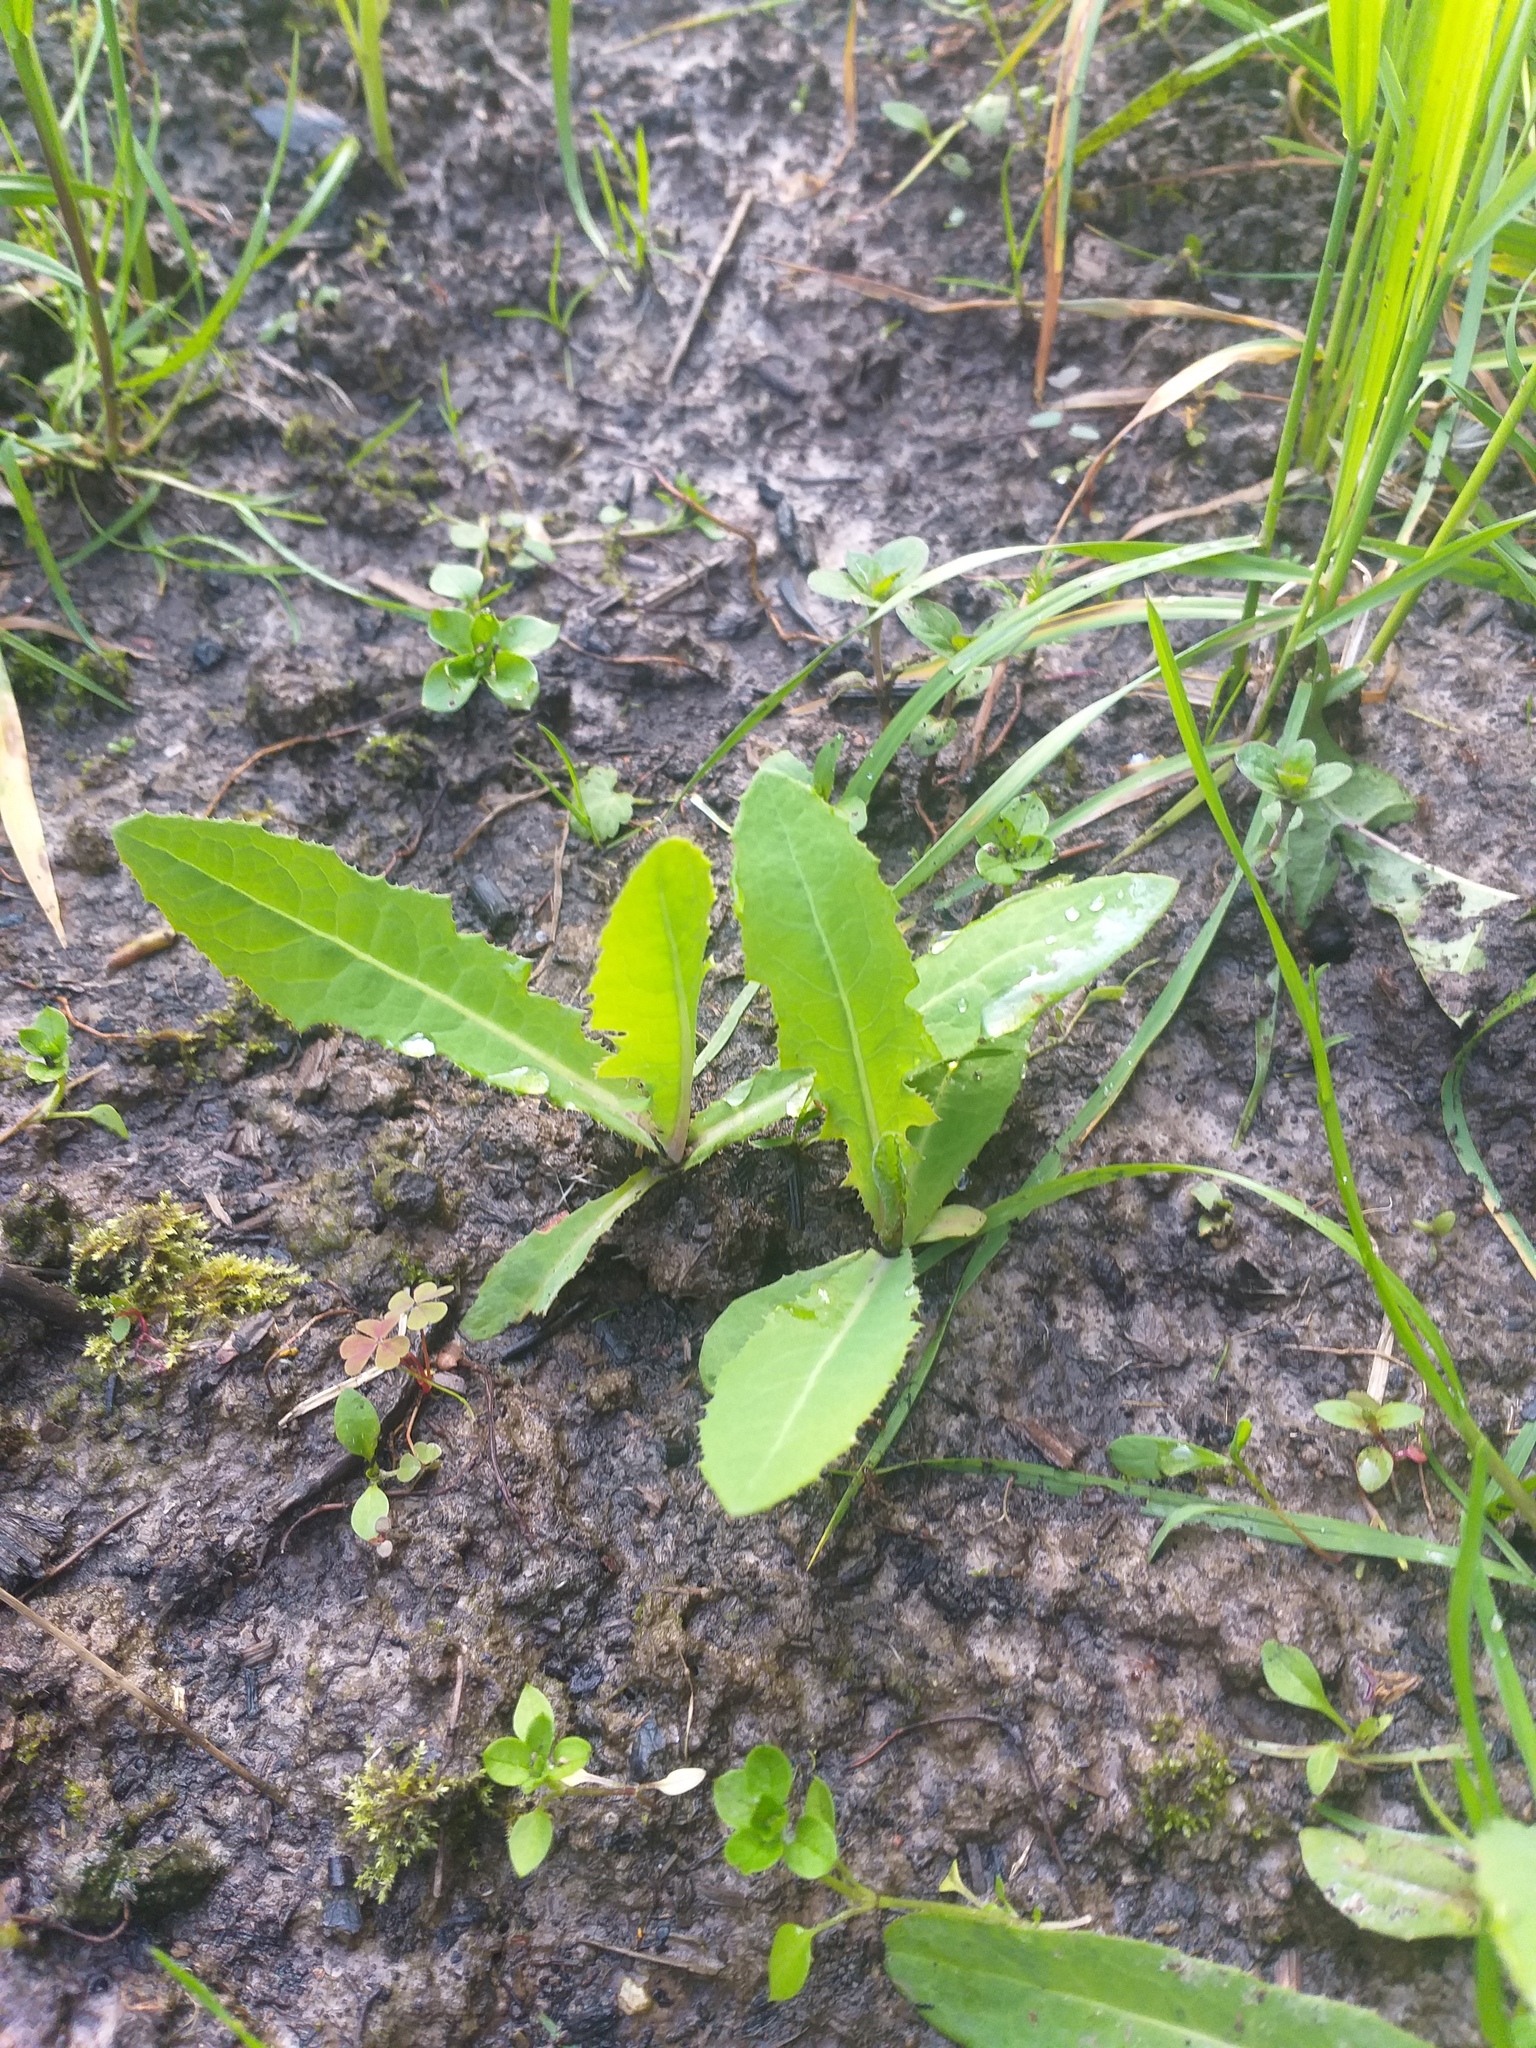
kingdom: Plantae
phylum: Tracheophyta
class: Magnoliopsida
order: Asterales
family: Asteraceae
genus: Sonchus
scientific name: Sonchus arvensis
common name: Perennial sow-thistle
